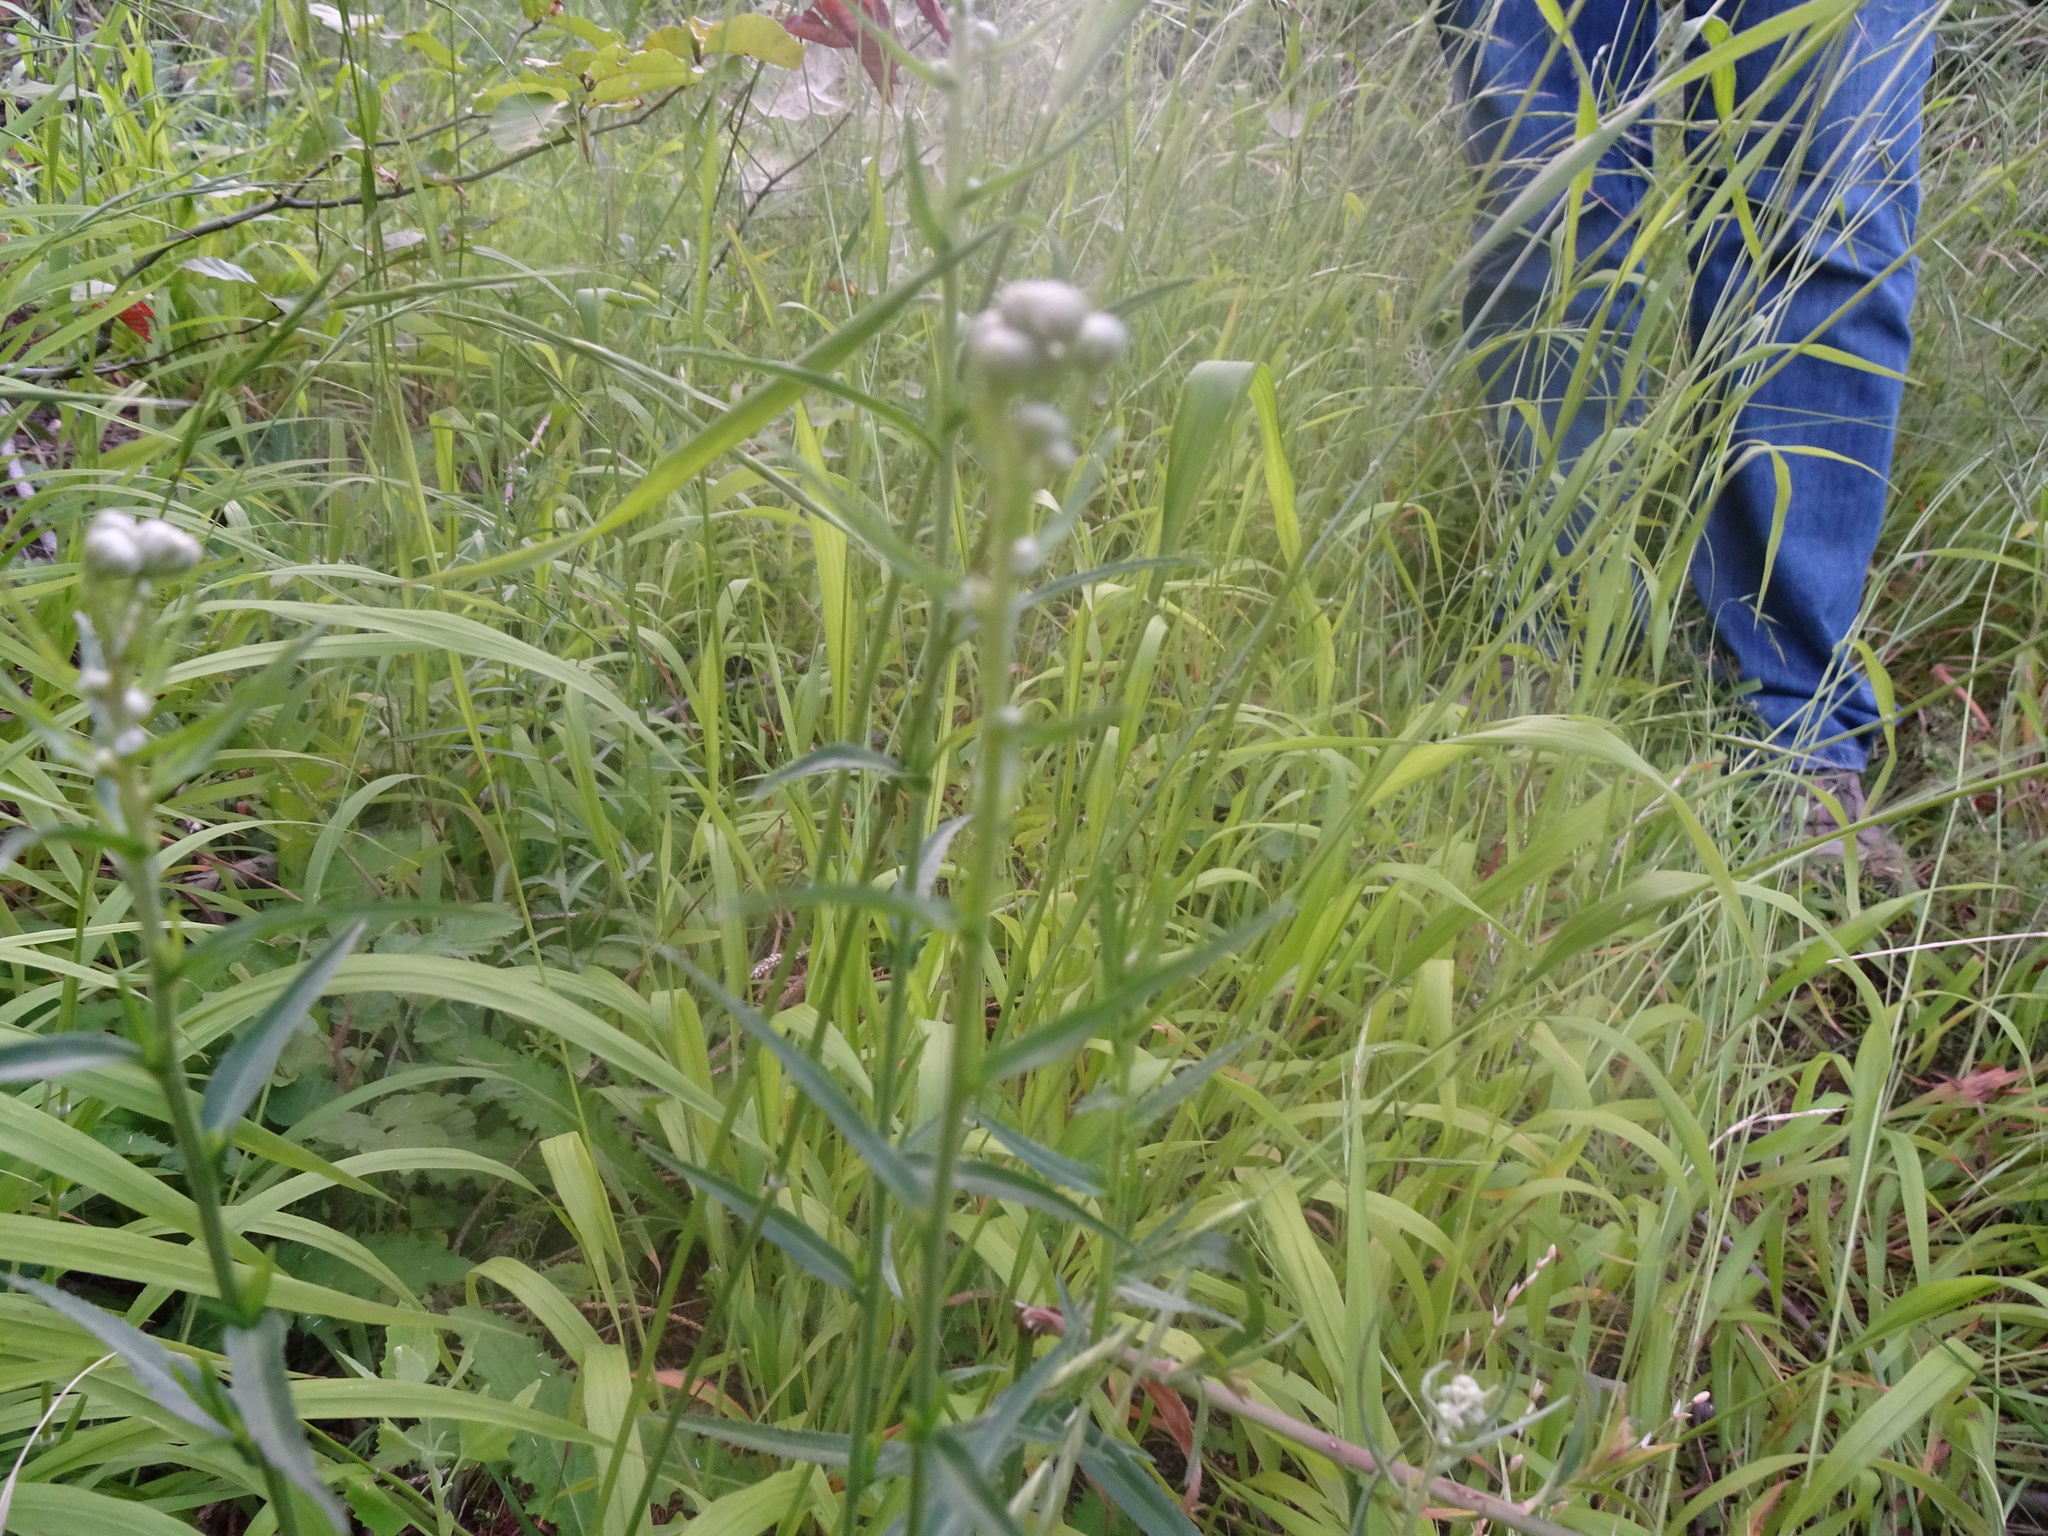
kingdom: Plantae
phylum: Tracheophyta
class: Magnoliopsida
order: Asterales
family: Asteraceae
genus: Achillea
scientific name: Achillea ptarmica
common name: Sneezeweed
